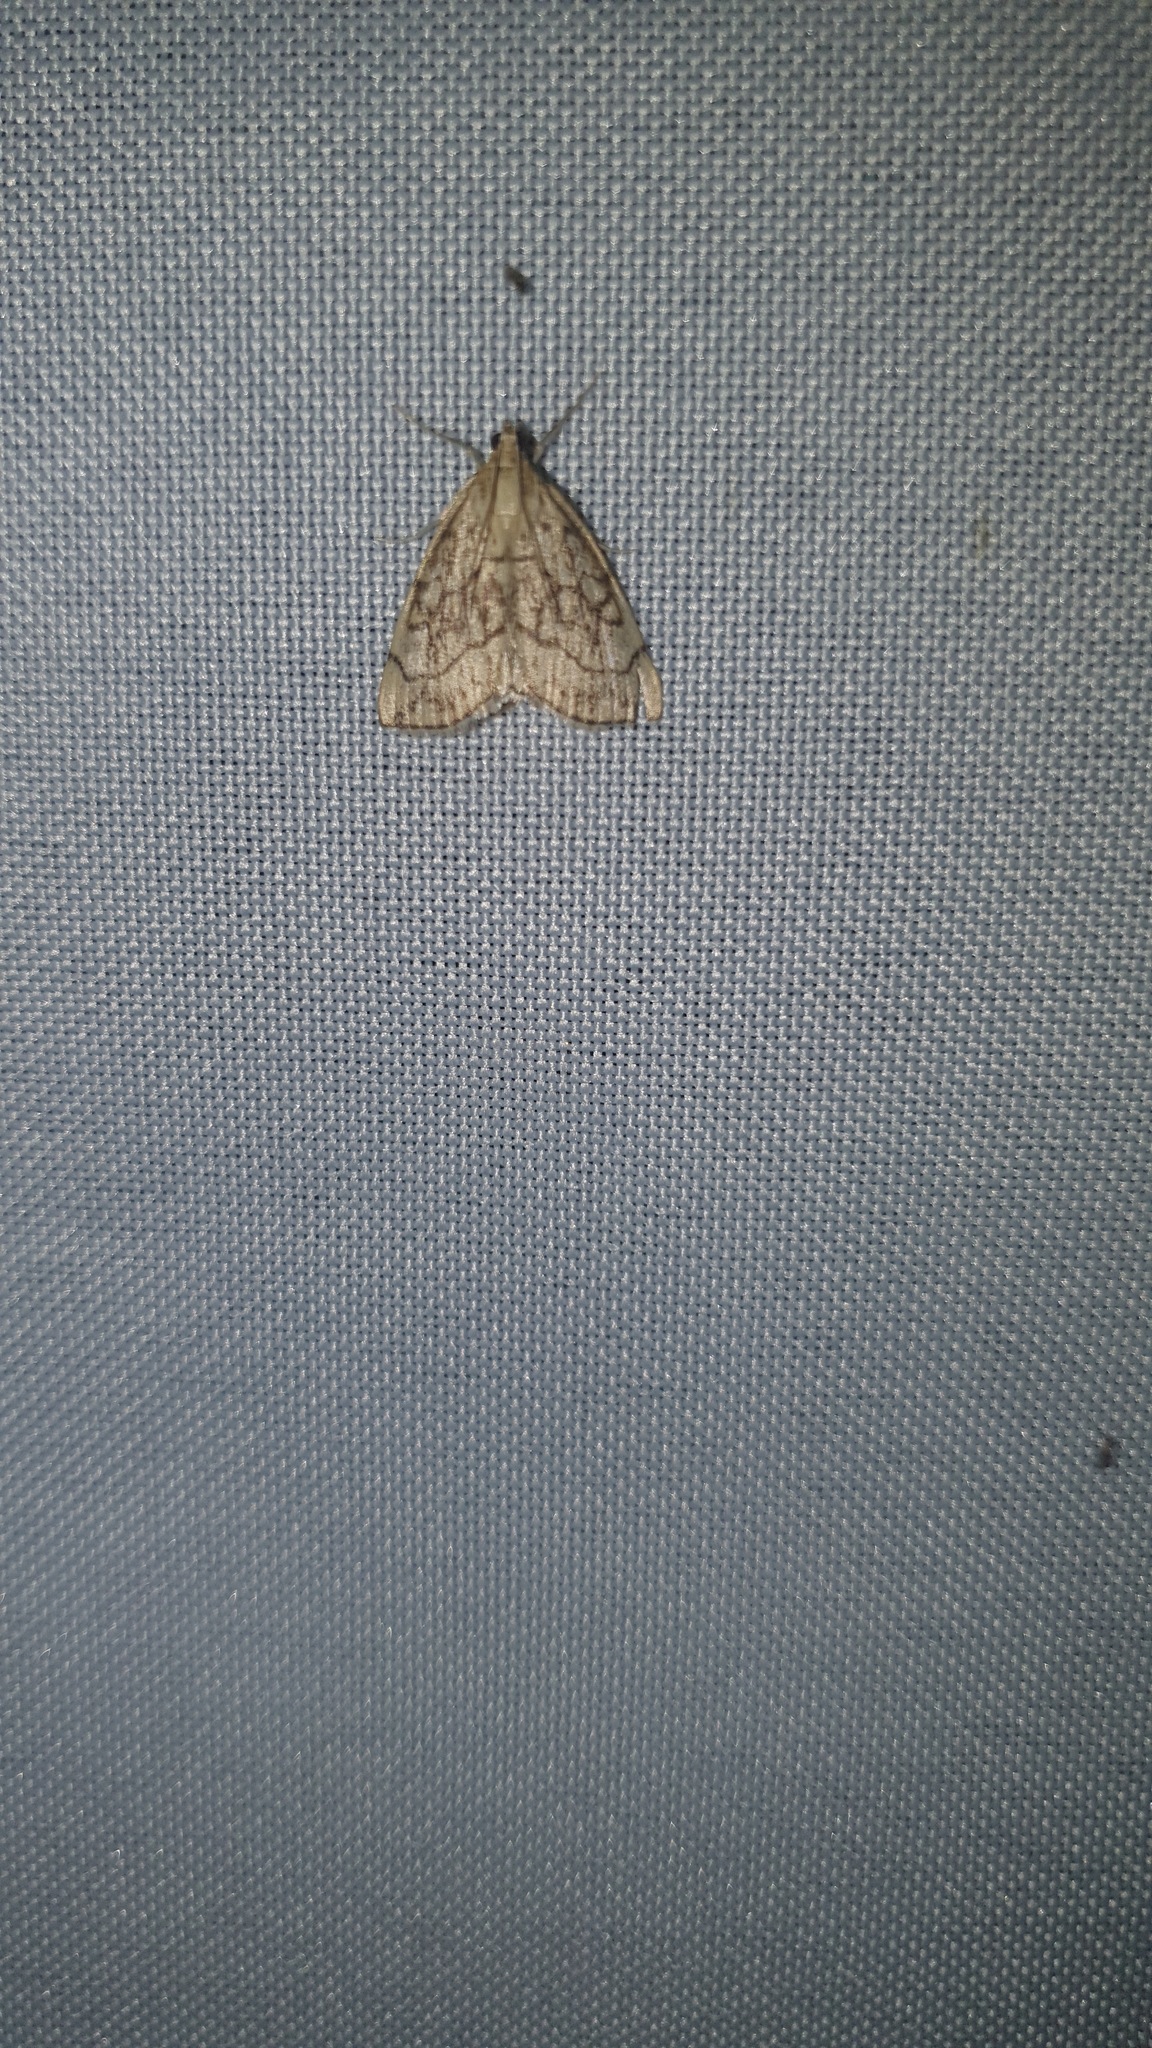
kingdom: Animalia
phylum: Arthropoda
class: Insecta
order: Lepidoptera
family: Crambidae
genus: Evergestis
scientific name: Evergestis pallidata
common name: Chequered pearl
